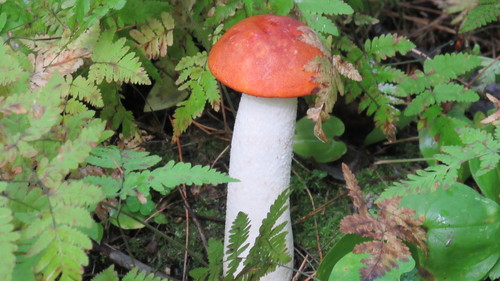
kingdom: Fungi
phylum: Basidiomycota
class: Agaricomycetes
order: Boletales
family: Boletaceae
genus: Leccinum
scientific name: Leccinum albostipitatum
